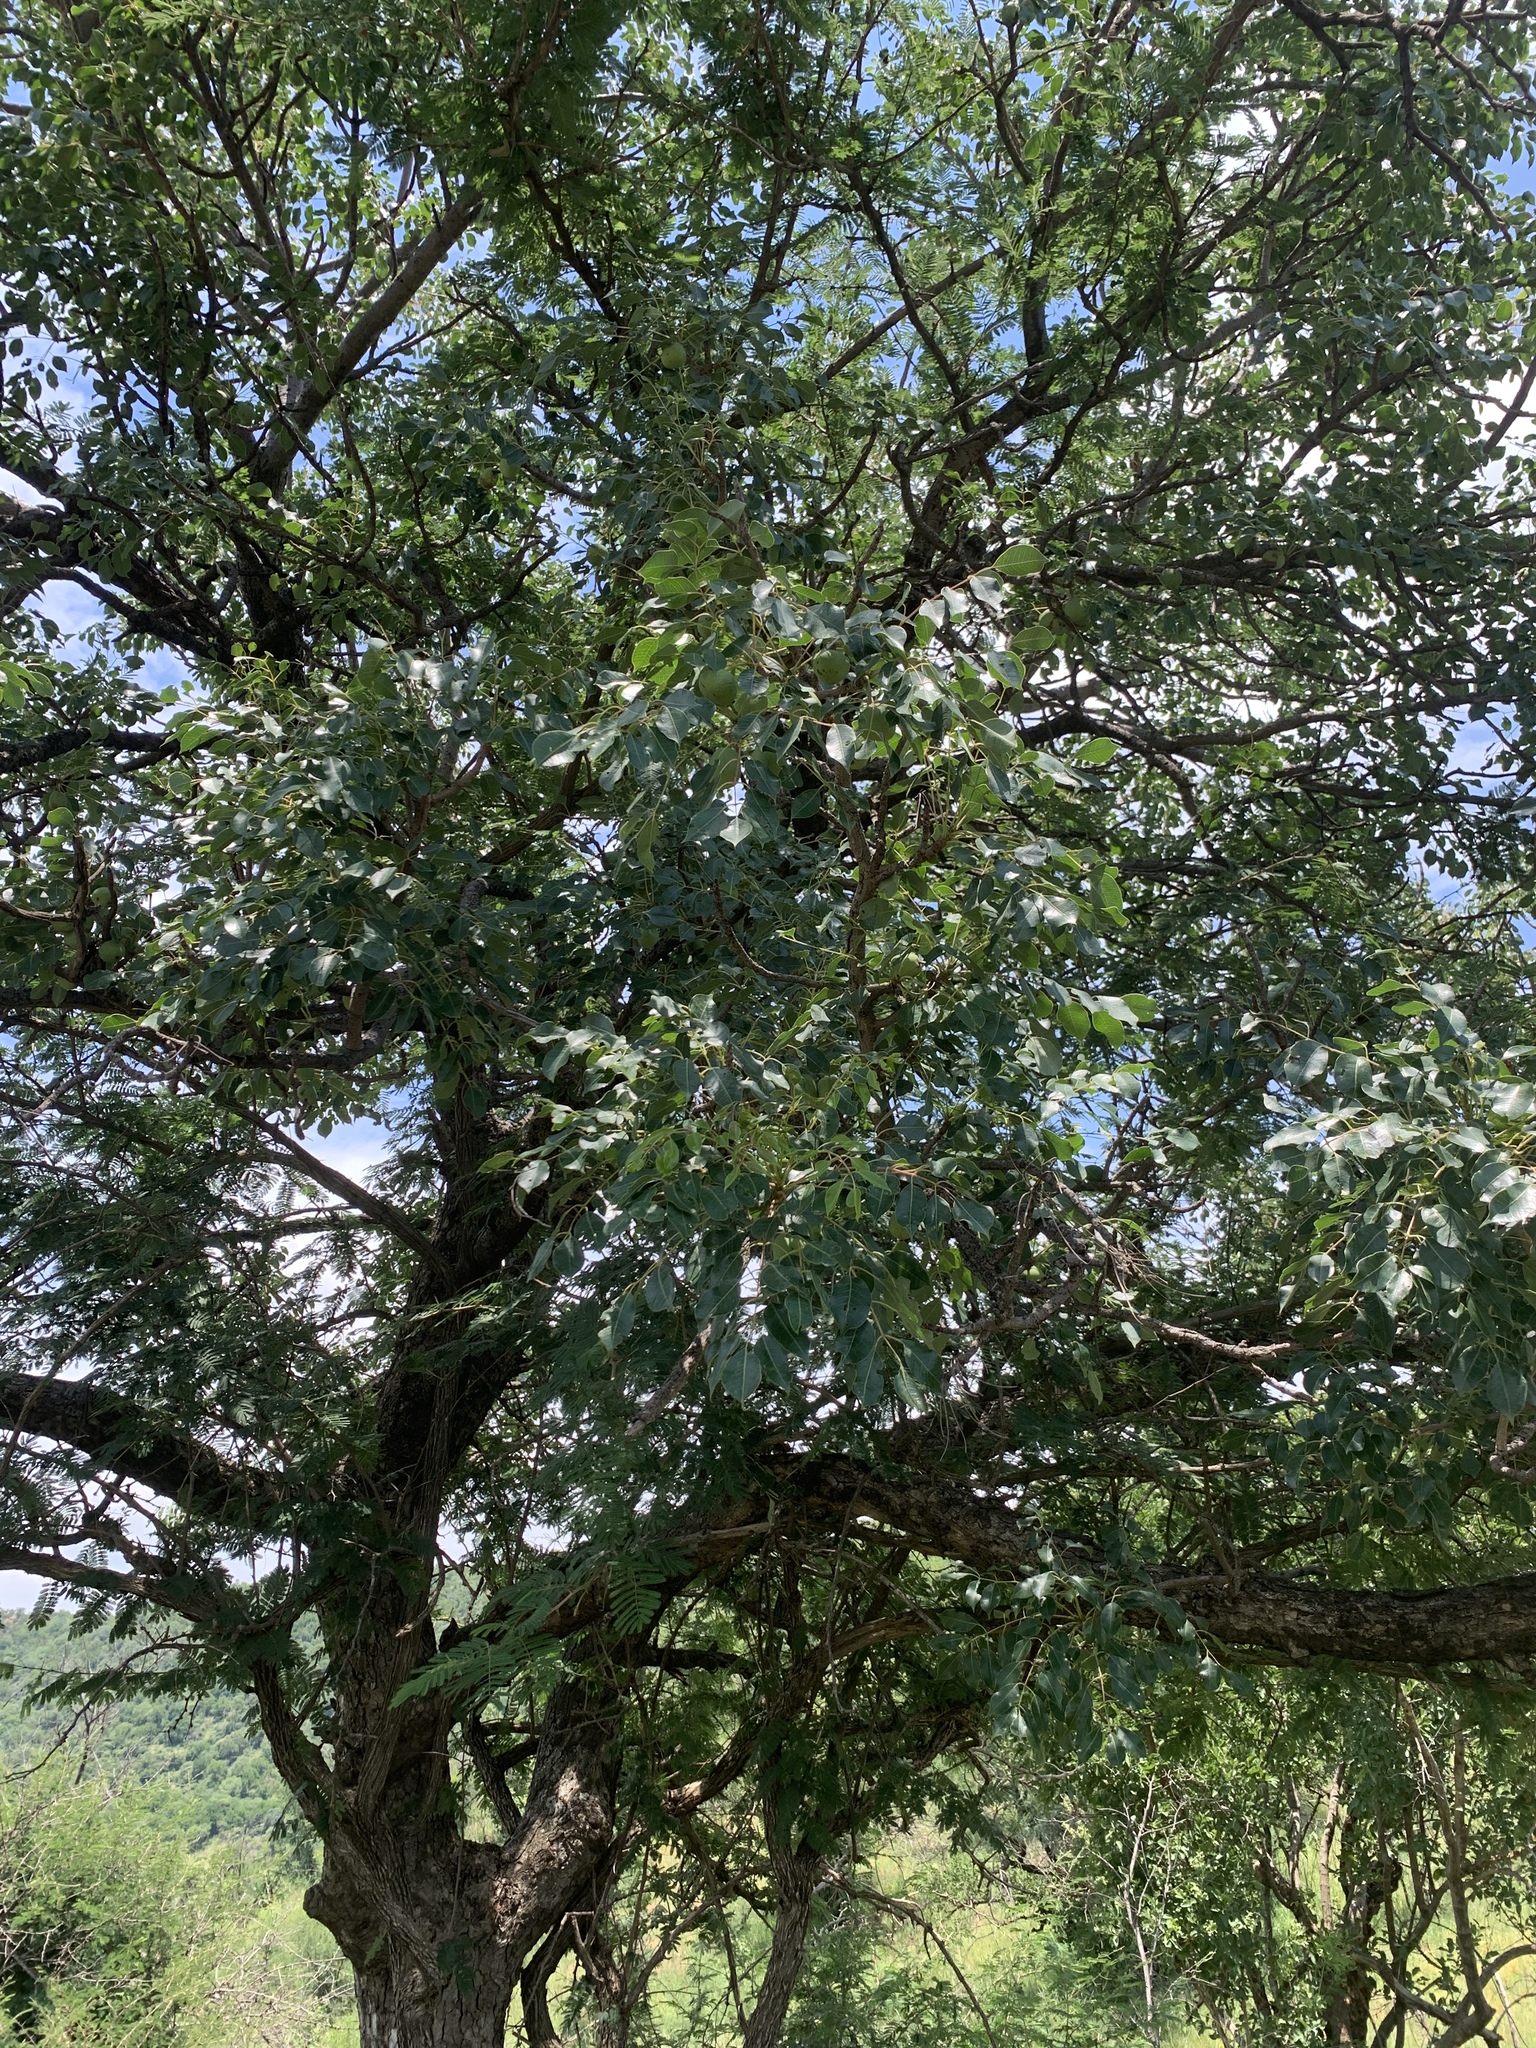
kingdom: Plantae
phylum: Tracheophyta
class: Magnoliopsida
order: Sapindales
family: Anacardiaceae
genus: Sclerocarya
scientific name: Sclerocarya birrea
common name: Marula
